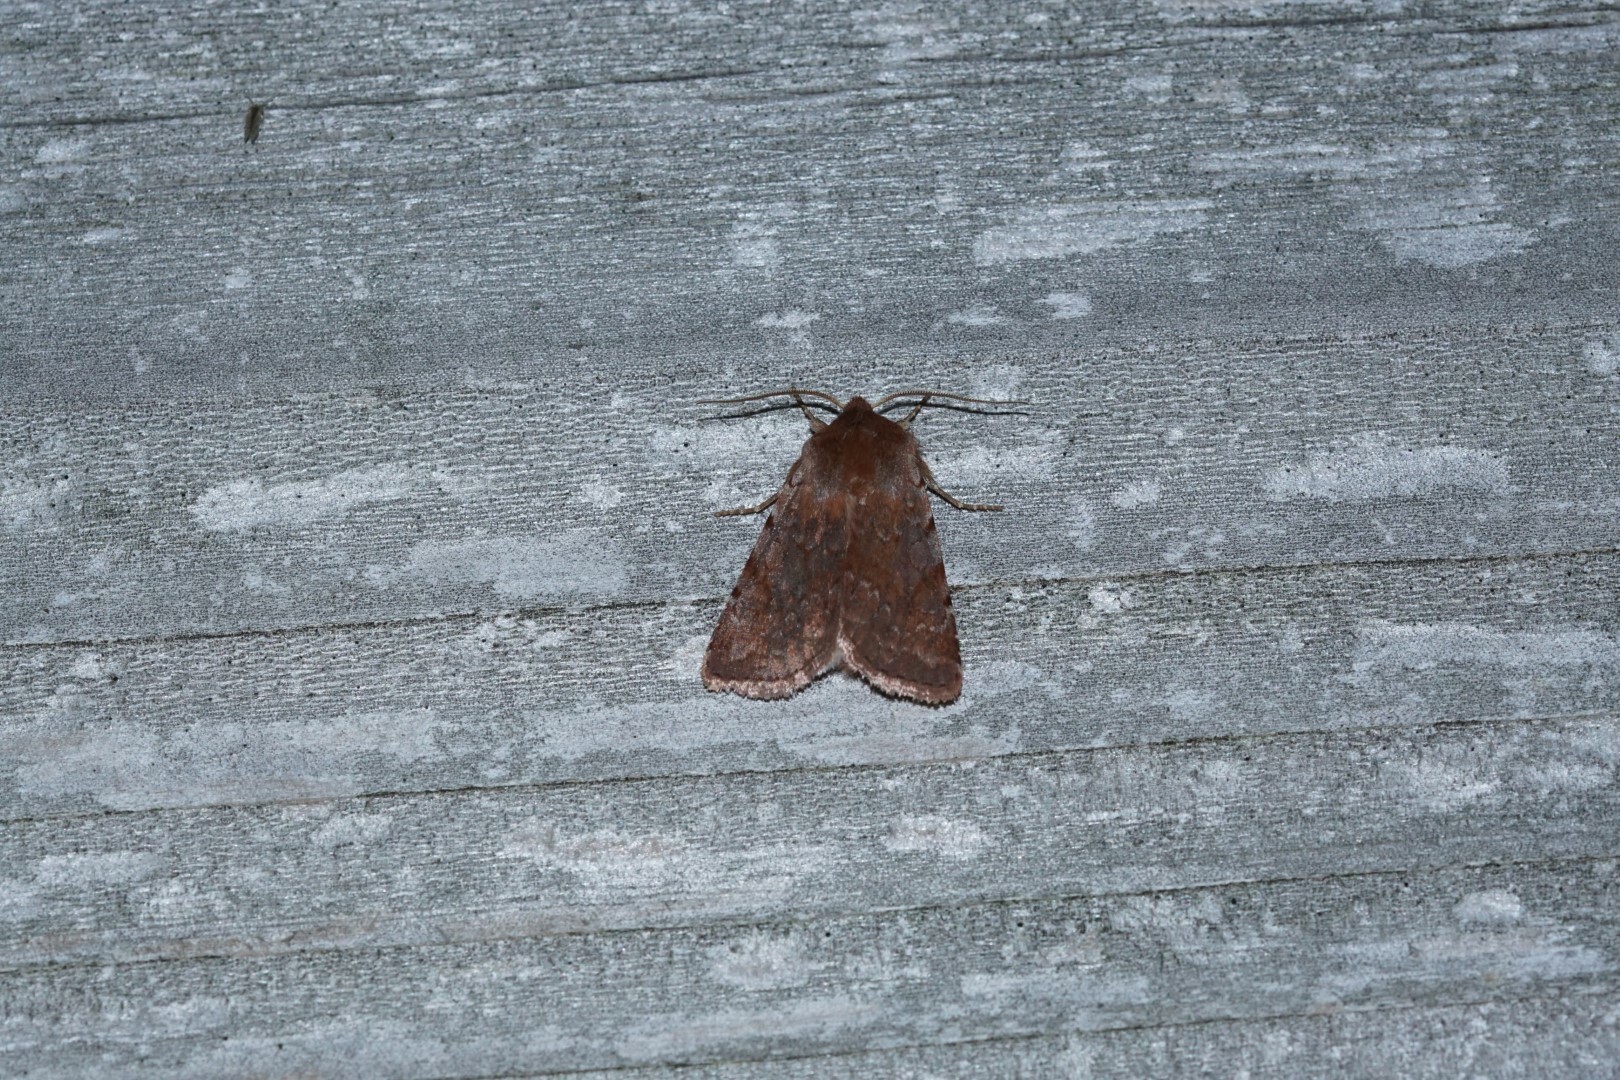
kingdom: Animalia
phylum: Arthropoda
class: Insecta
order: Lepidoptera
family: Noctuidae
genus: Cerastis
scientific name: Cerastis rubricosa
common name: Red chestnut
